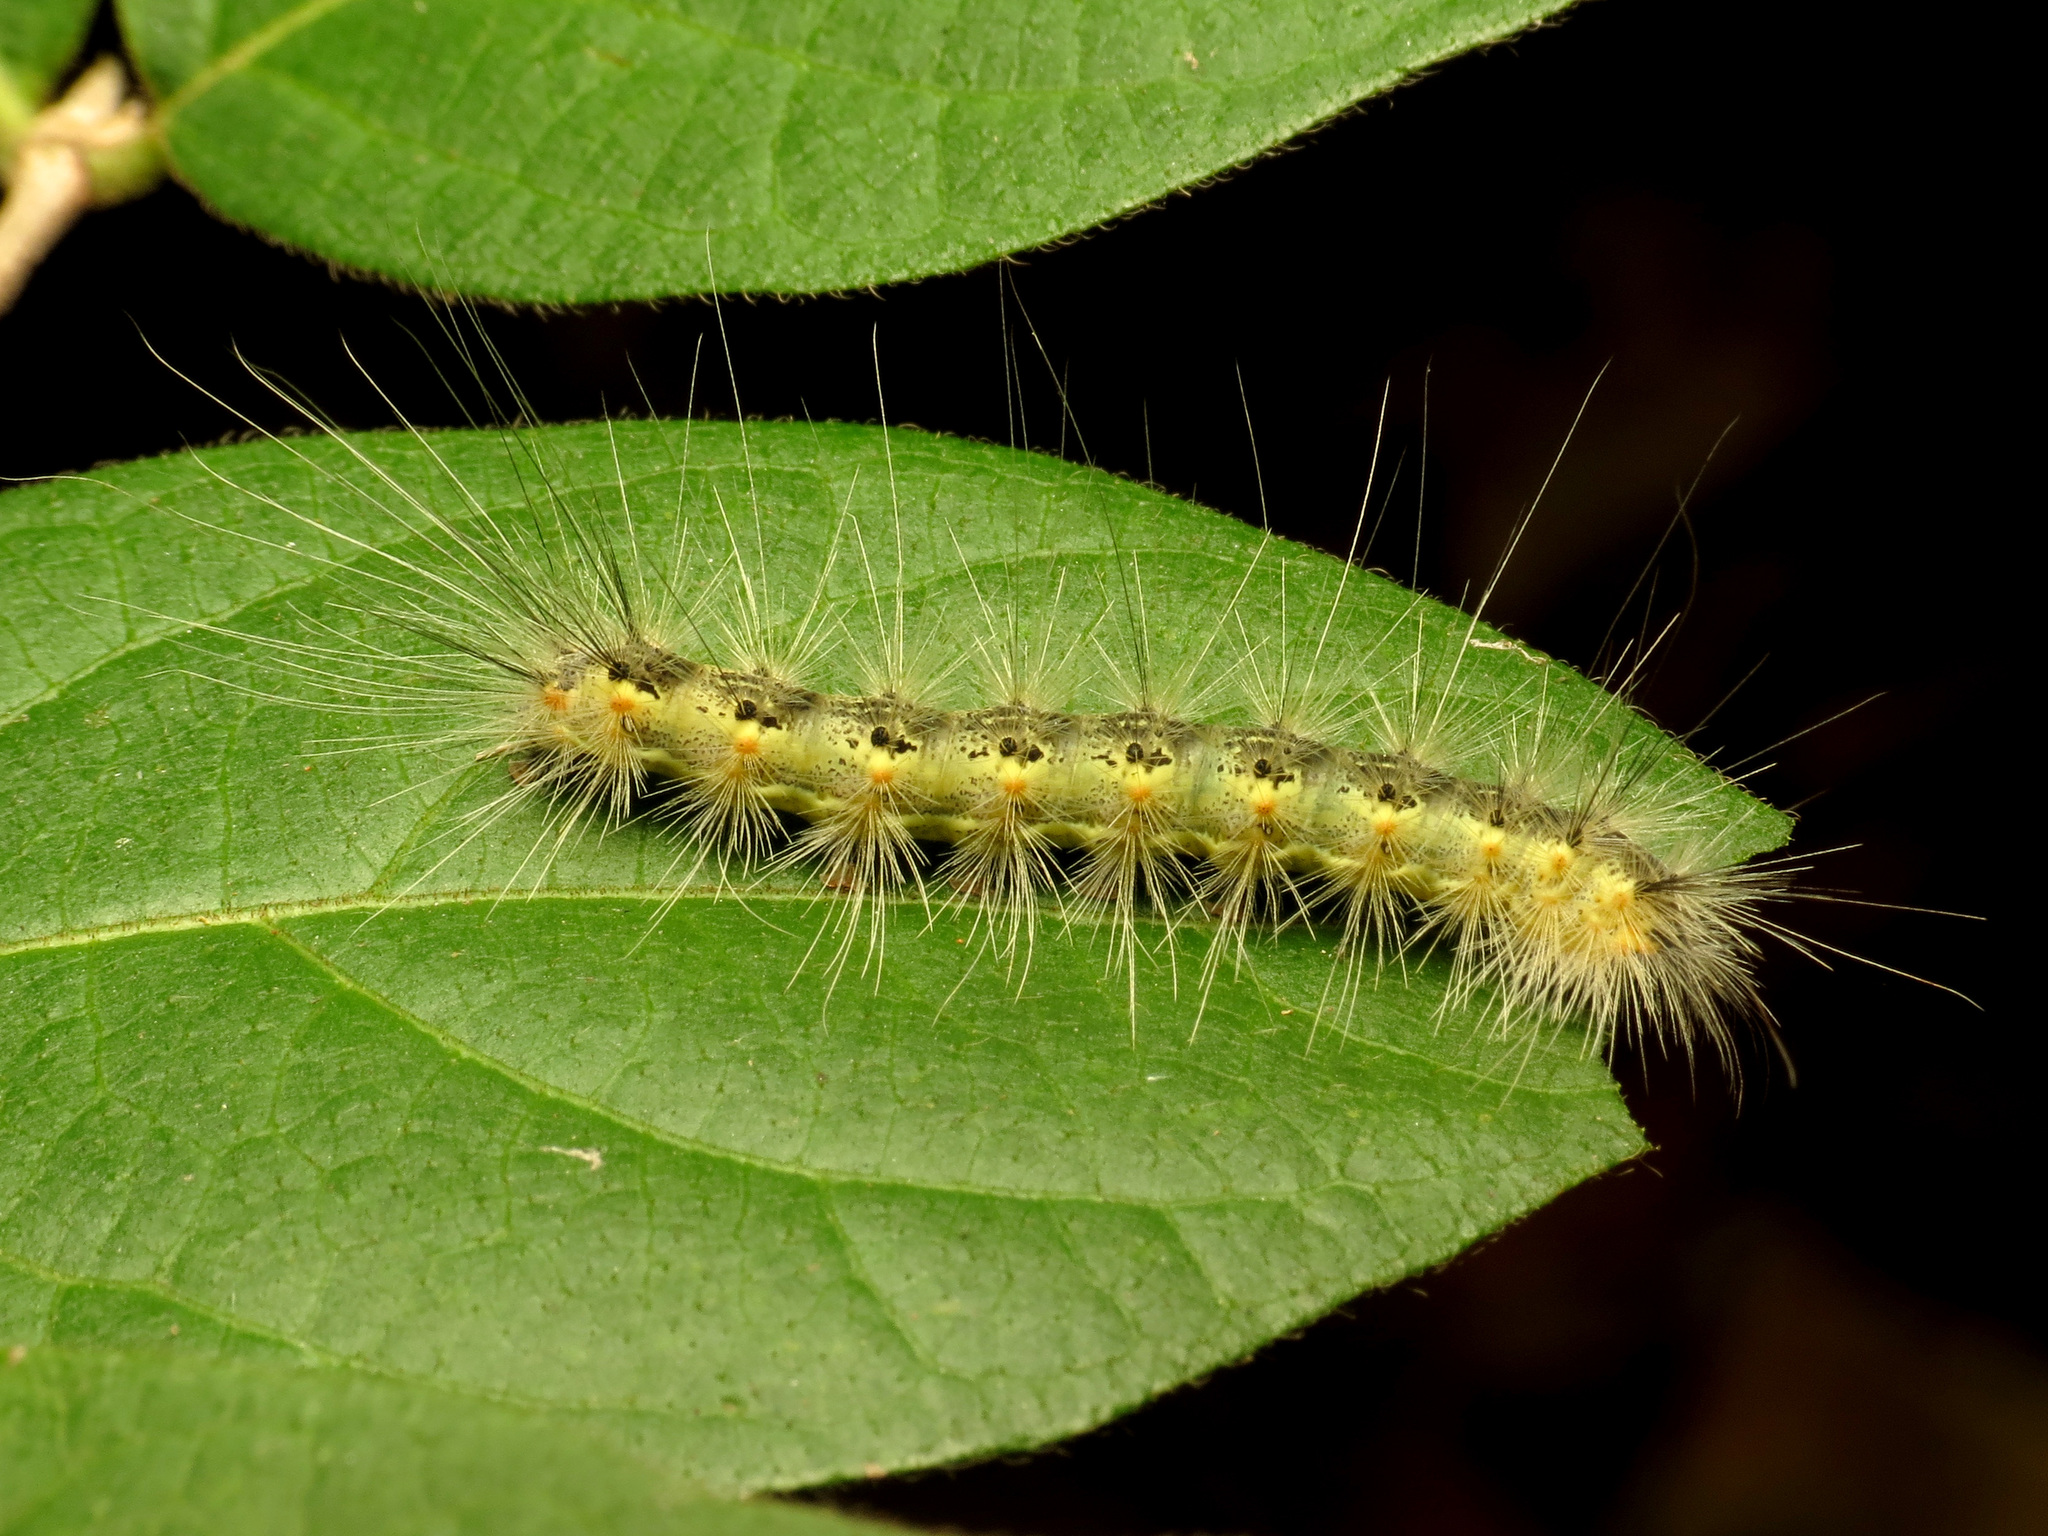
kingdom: Animalia
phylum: Arthropoda
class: Insecta
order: Lepidoptera
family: Erebidae
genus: Hyphantria
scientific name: Hyphantria cunea
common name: American white moth
